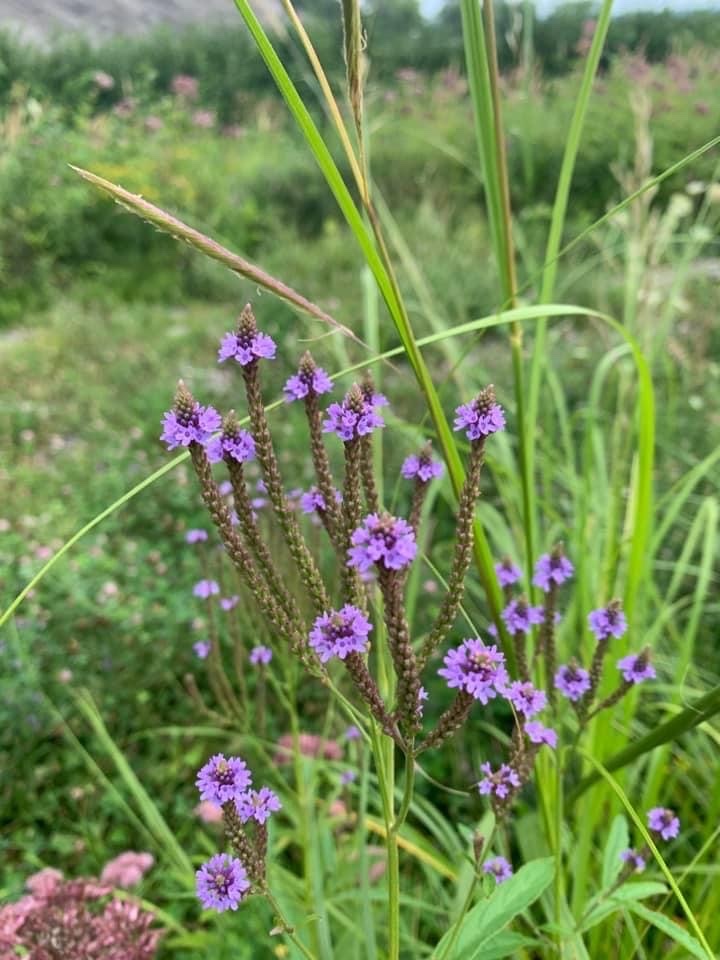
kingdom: Plantae
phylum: Tracheophyta
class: Magnoliopsida
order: Lamiales
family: Verbenaceae
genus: Verbena
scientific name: Verbena hastata
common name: American blue vervain
